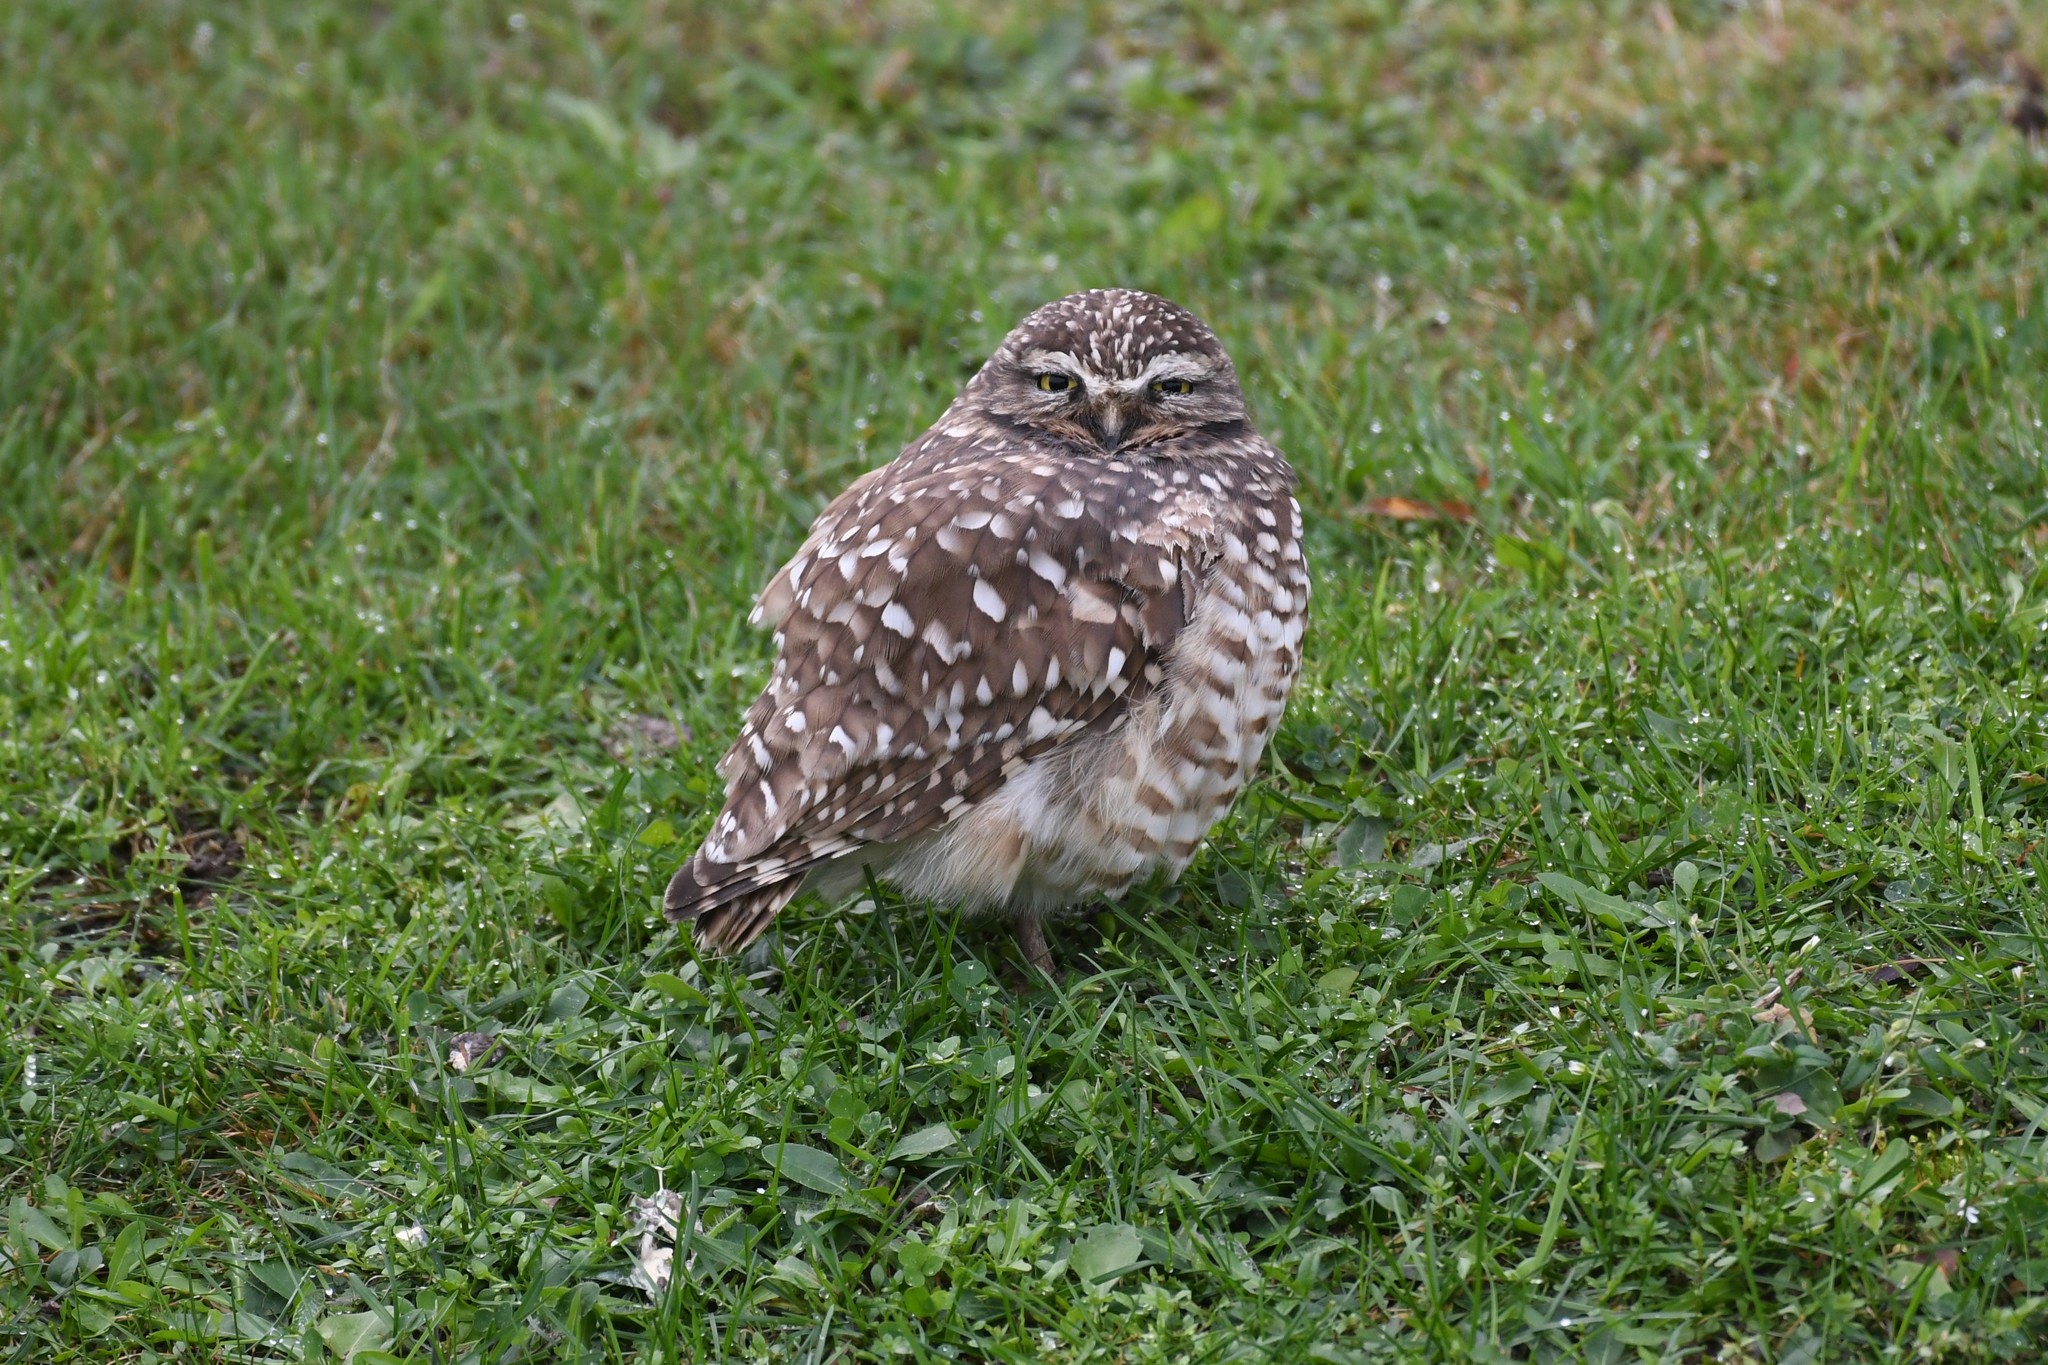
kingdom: Animalia
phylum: Chordata
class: Aves
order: Strigiformes
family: Strigidae
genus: Athene
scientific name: Athene cunicularia
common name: Burrowing owl
